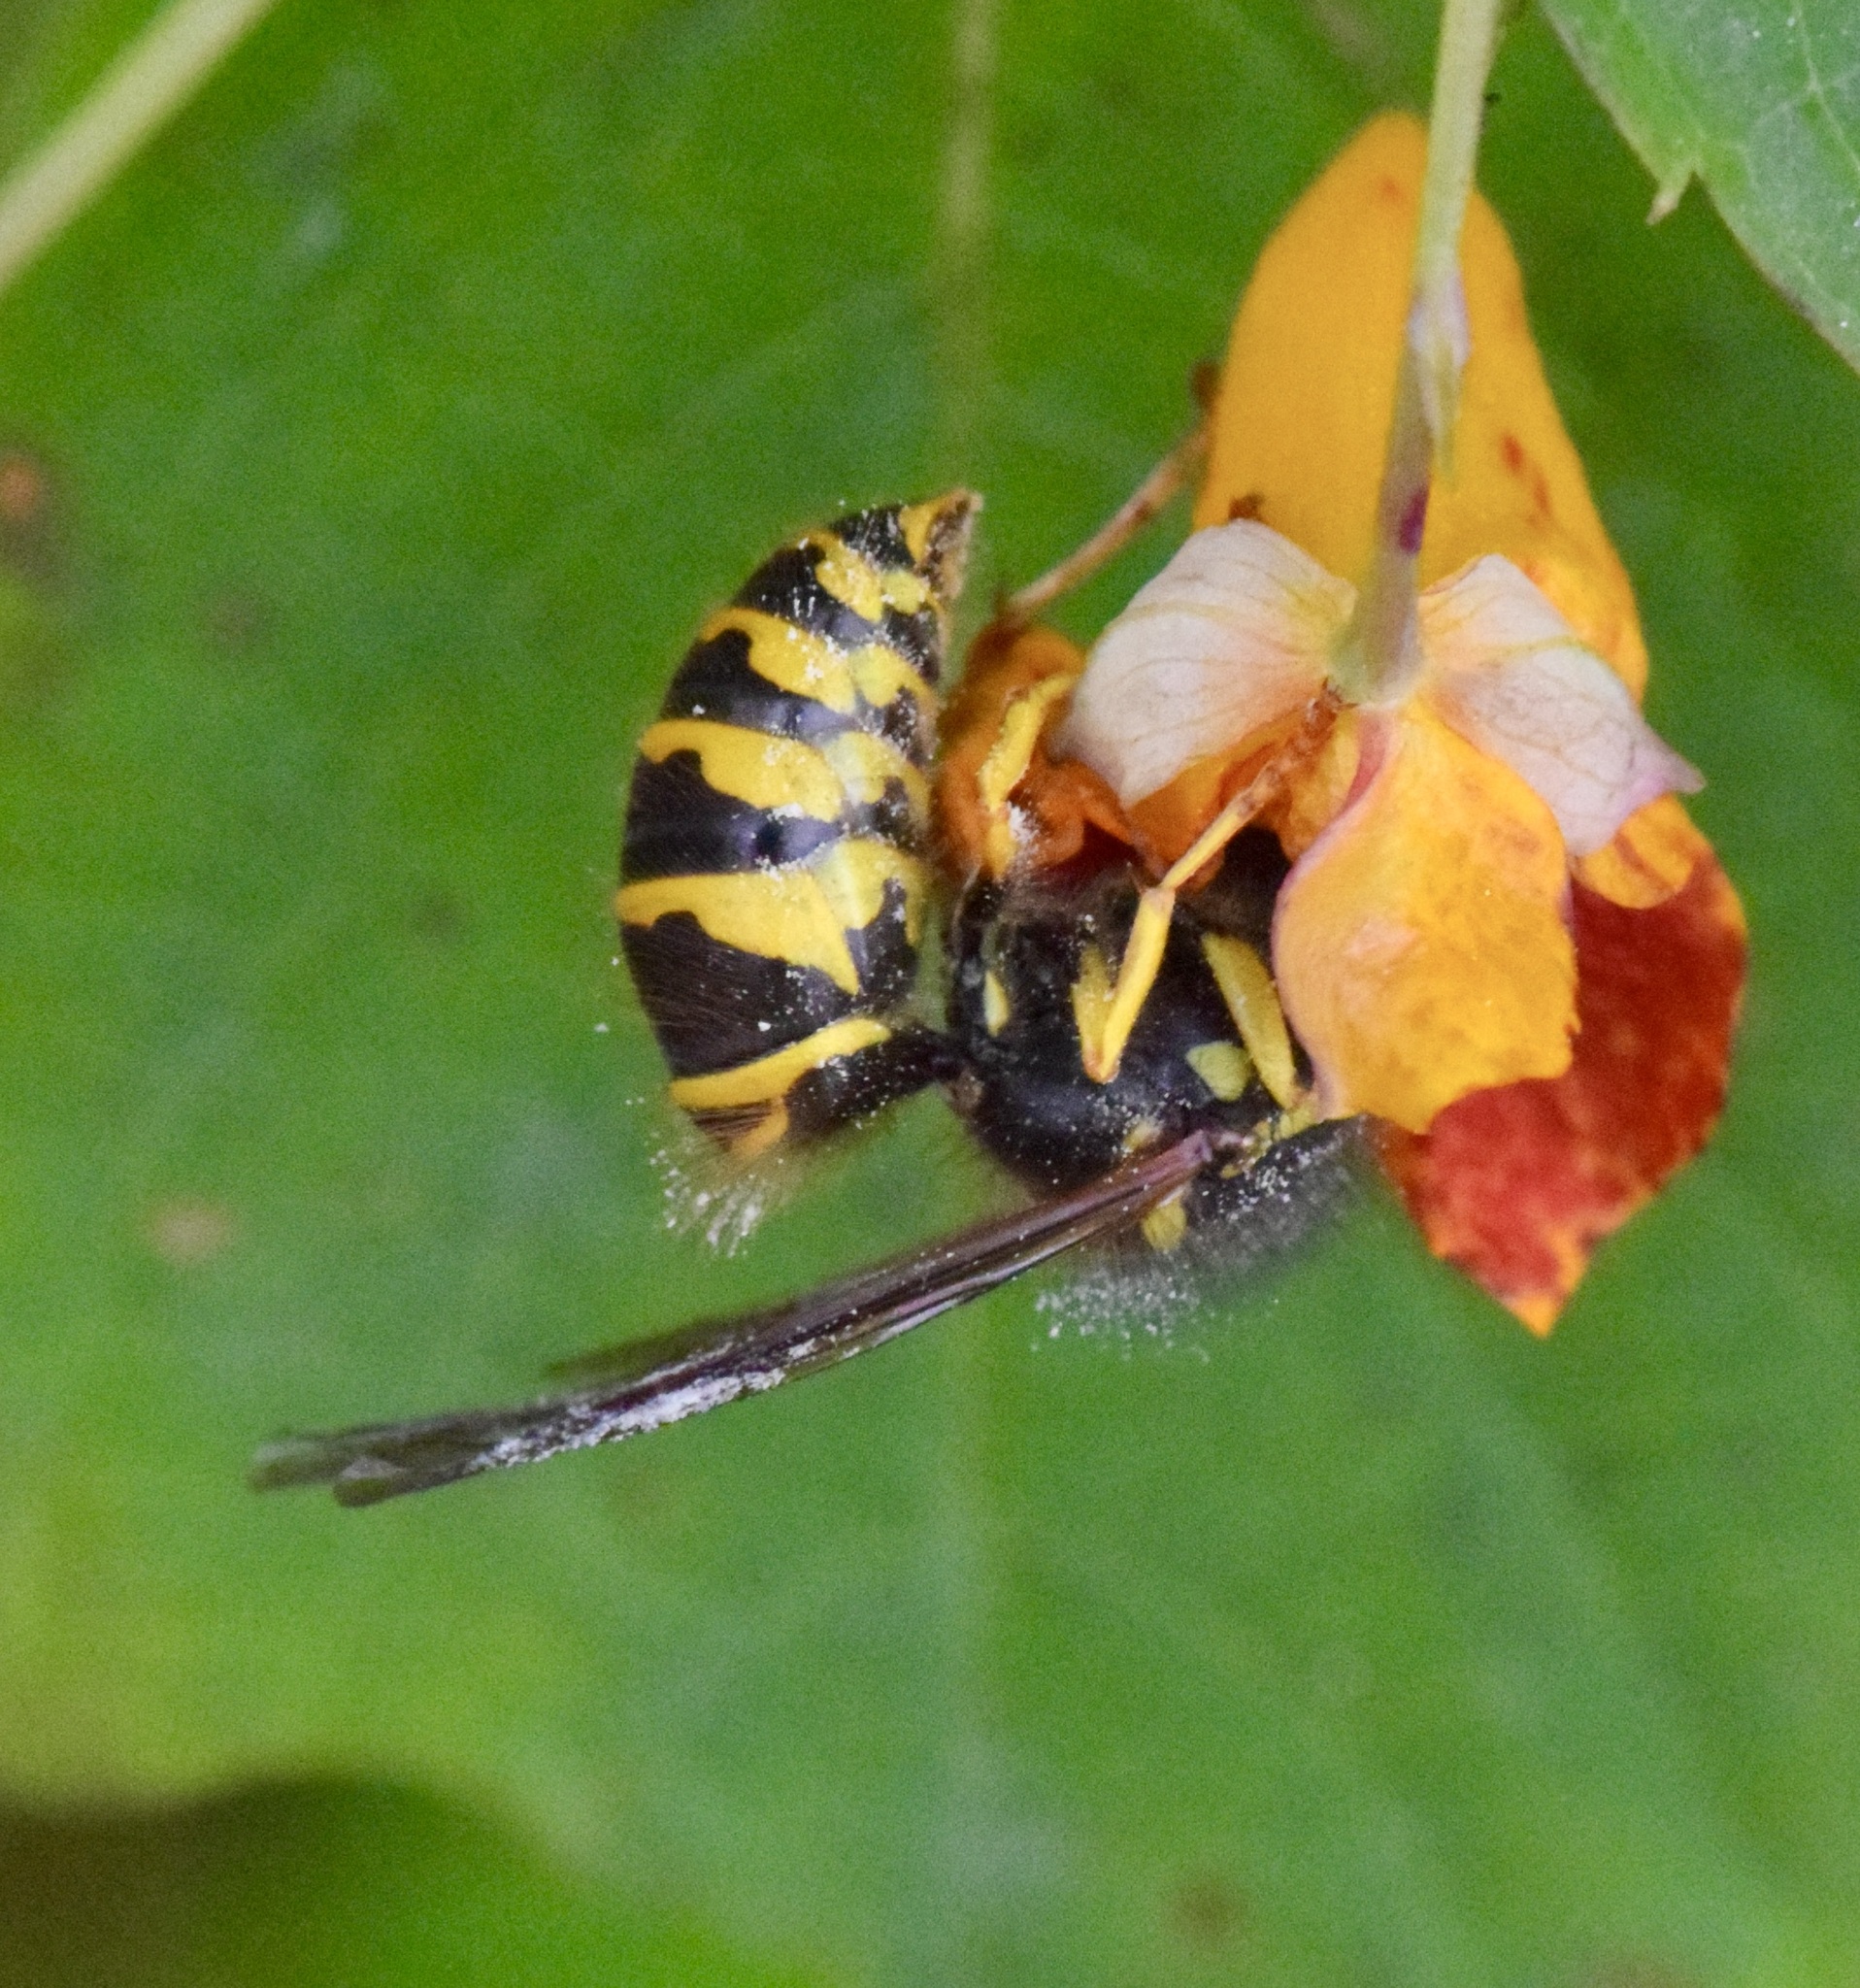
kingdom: Animalia
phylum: Arthropoda
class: Insecta
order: Hymenoptera
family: Vespidae
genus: Vespula
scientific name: Vespula maculifrons
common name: Eastern yellowjacket
